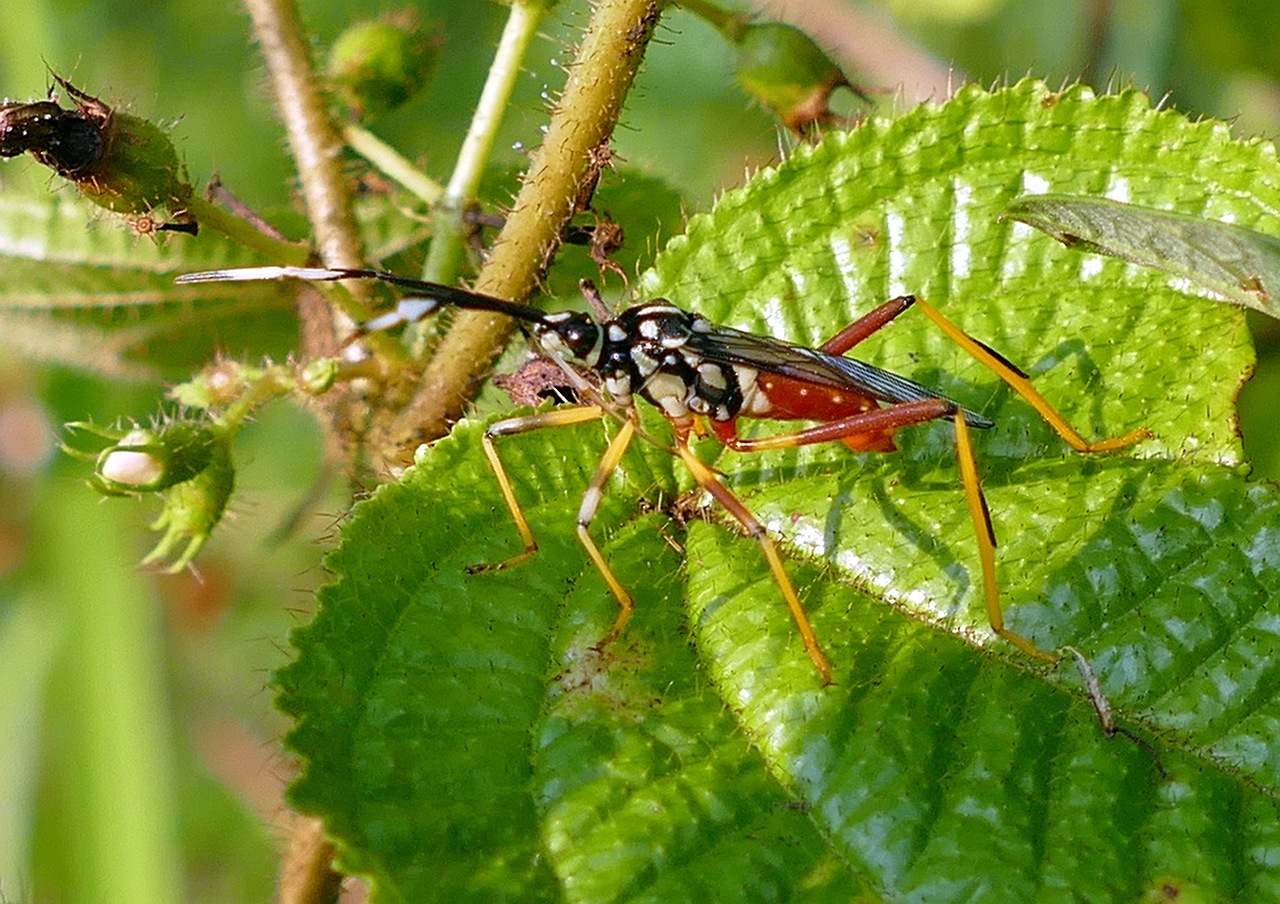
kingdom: Animalia
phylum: Arthropoda
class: Insecta
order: Hemiptera
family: Coreidae
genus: Holhymenia
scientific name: Holhymenia clavigera
